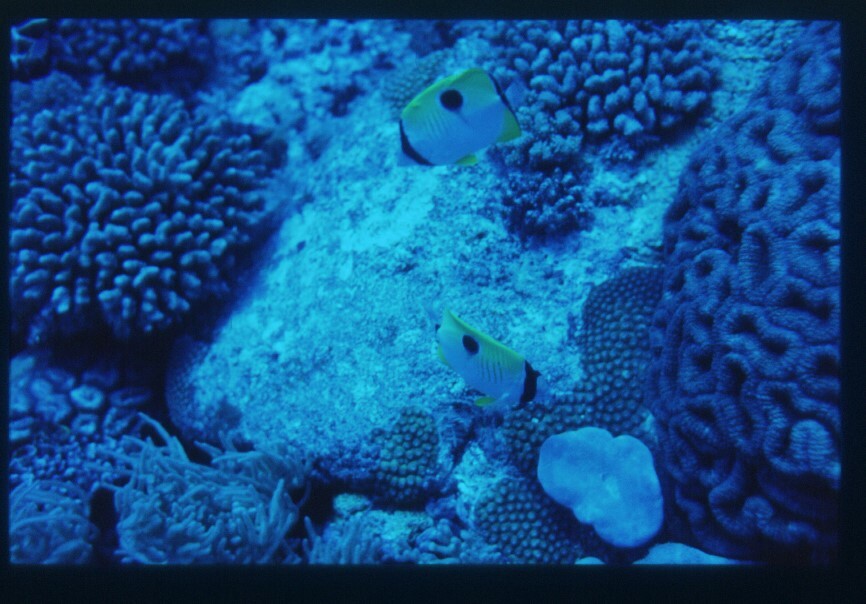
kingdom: Animalia
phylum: Chordata
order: Perciformes
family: Chaetodontidae
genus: Chaetodon
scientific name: Chaetodon unimaculatus
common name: Teardrop butterflyfish
